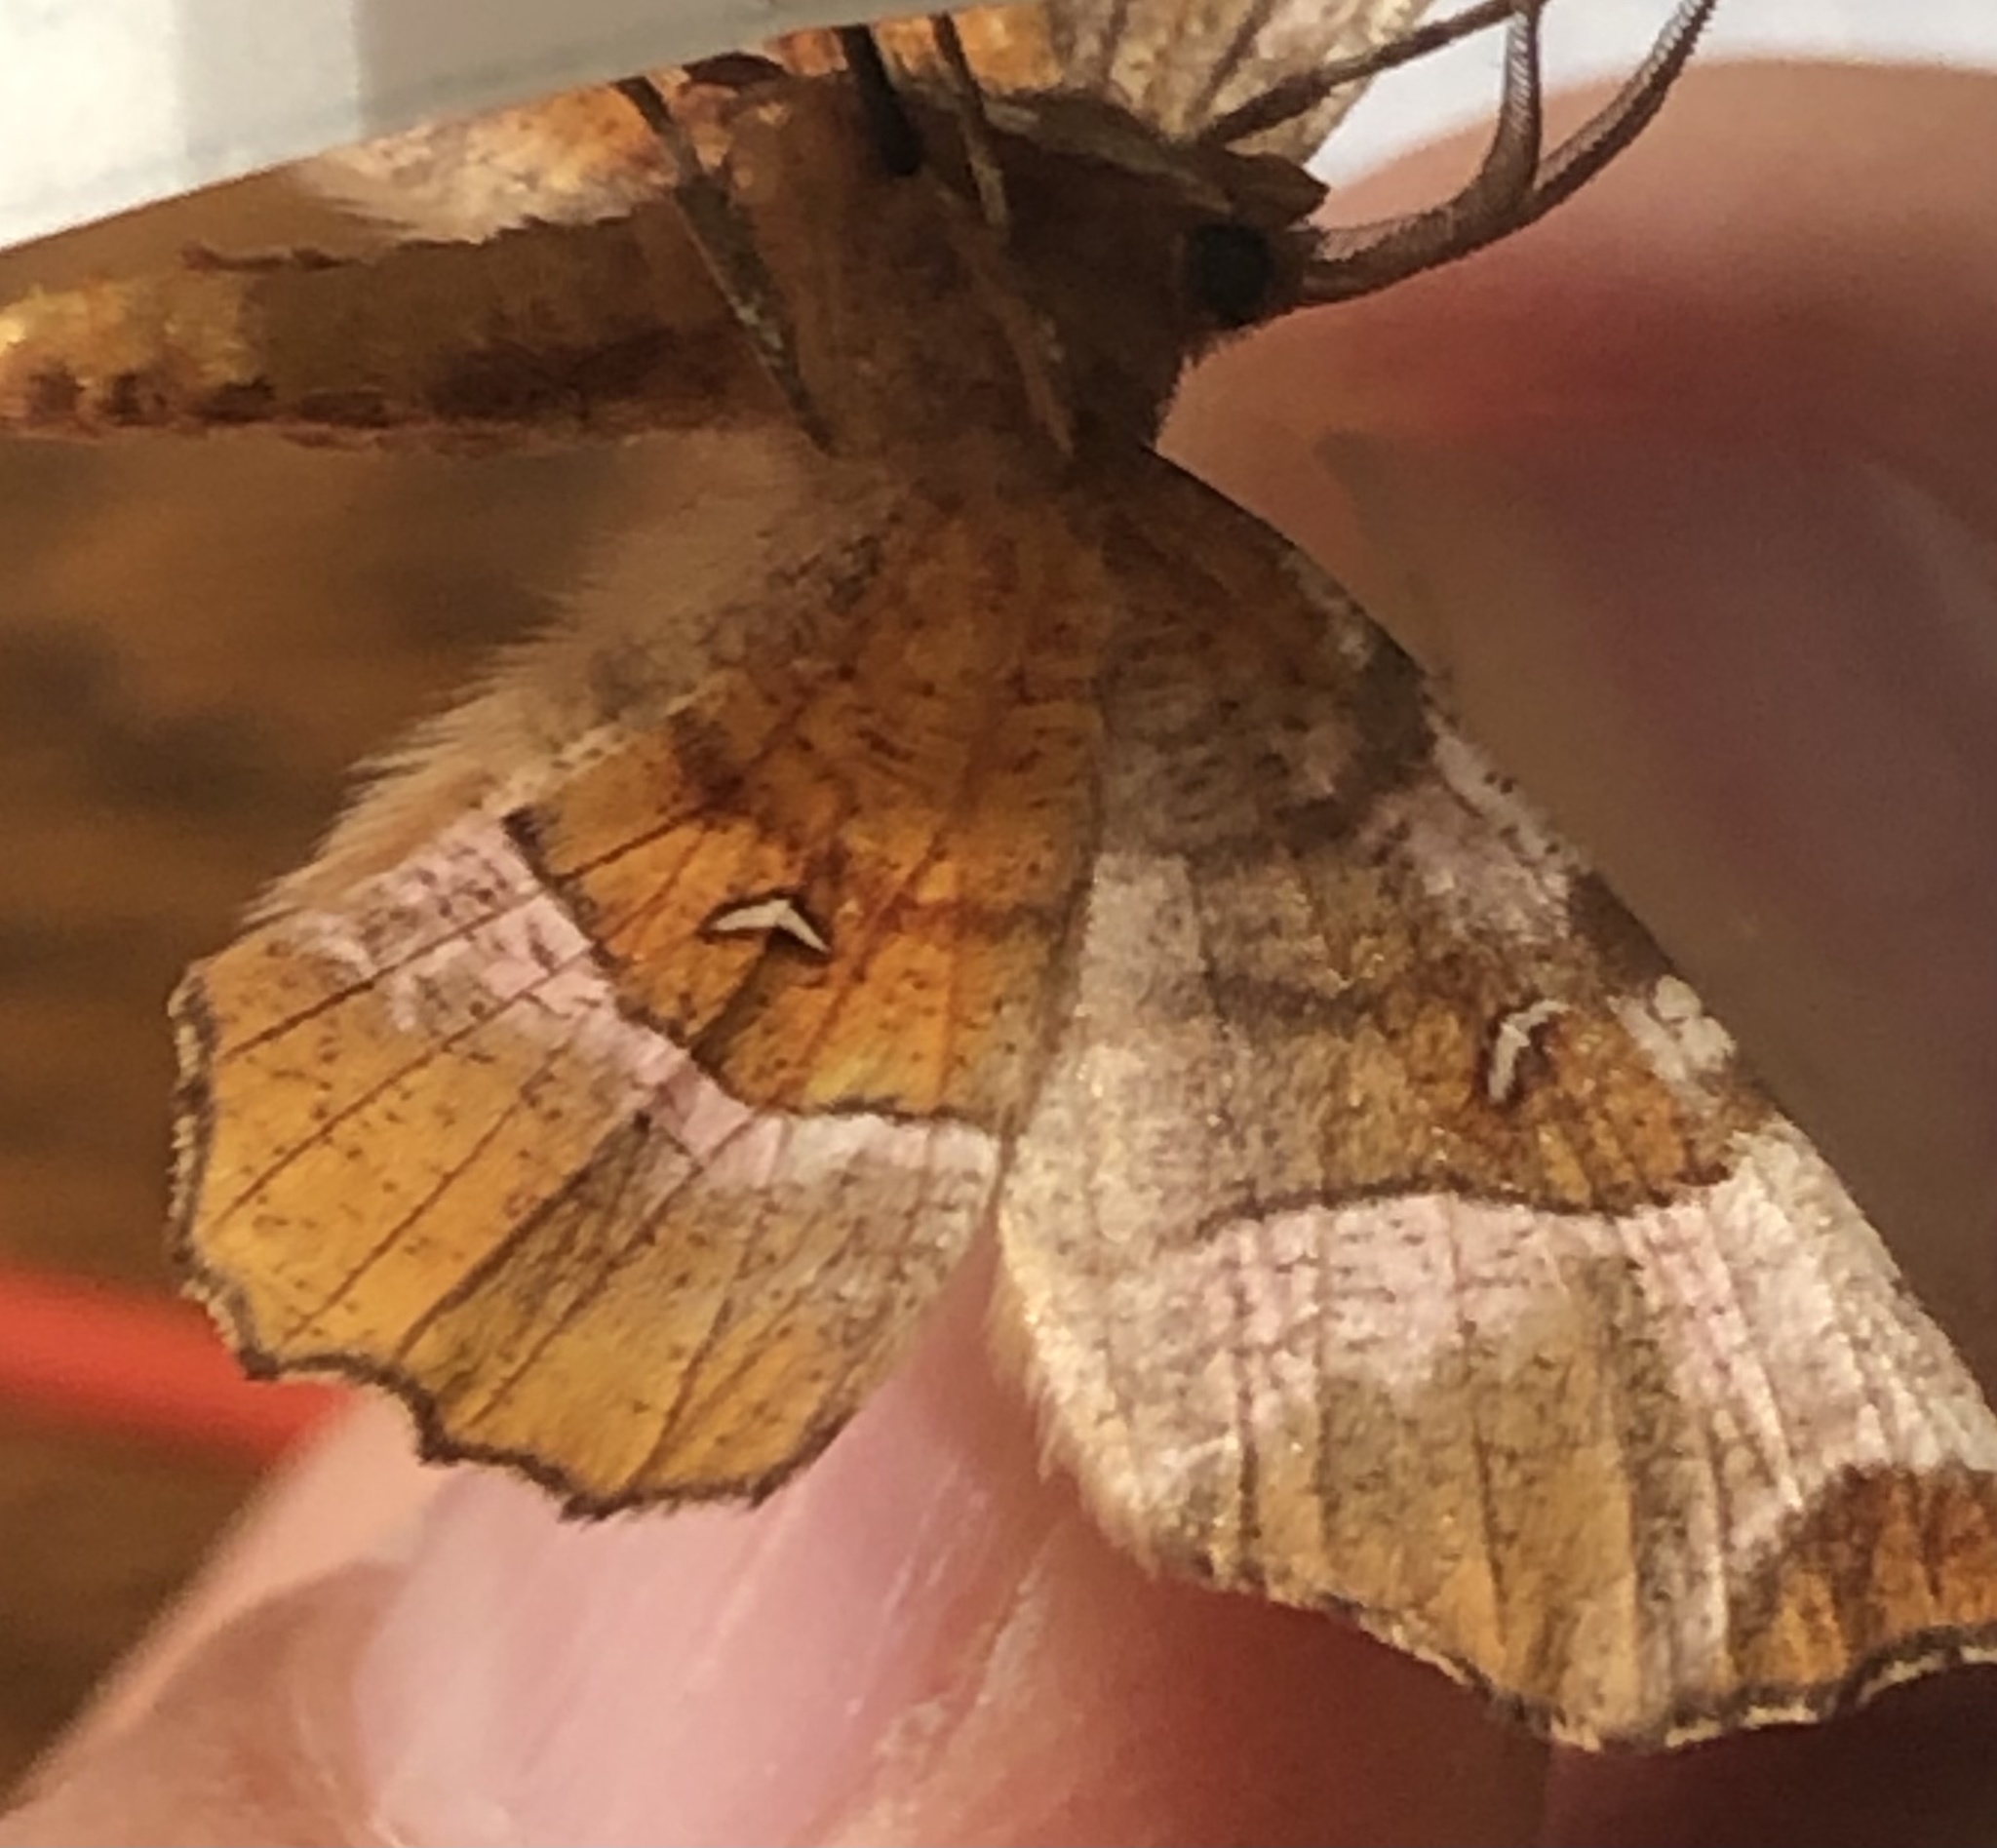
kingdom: Animalia
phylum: Arthropoda
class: Insecta
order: Lepidoptera
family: Geometridae
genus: Selenia
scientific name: Selenia tetralunaria
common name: Purple thorn
